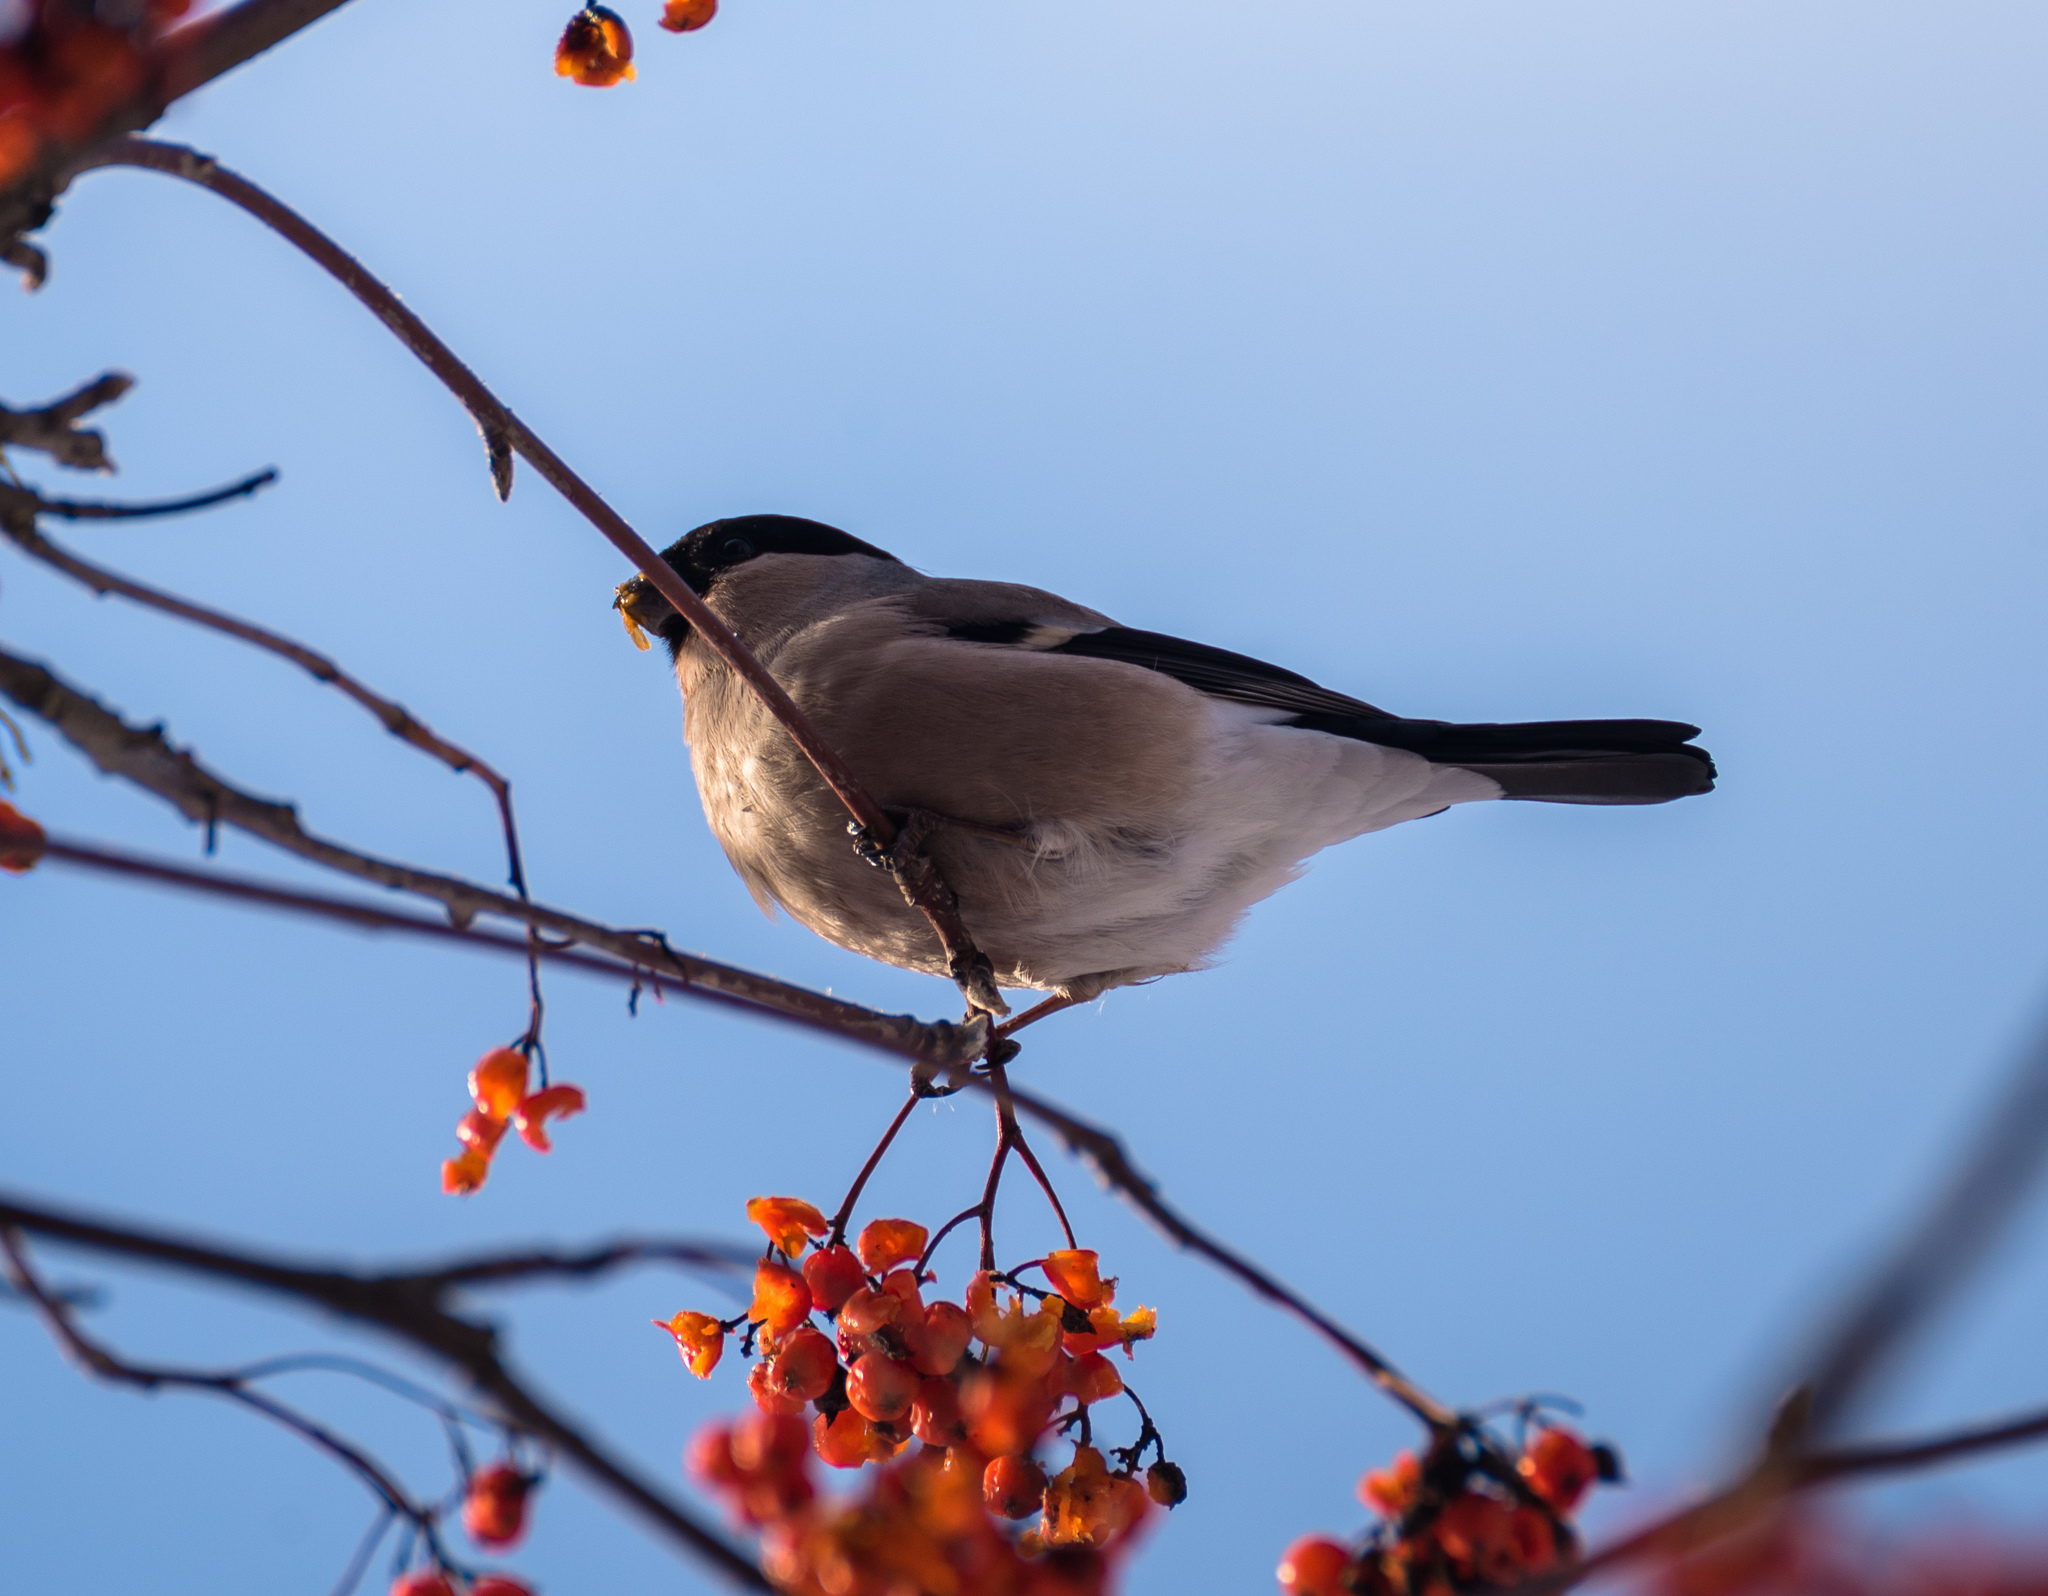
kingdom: Animalia
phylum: Chordata
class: Aves
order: Passeriformes
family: Fringillidae
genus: Pyrrhula
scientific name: Pyrrhula pyrrhula
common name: Eurasian bullfinch
